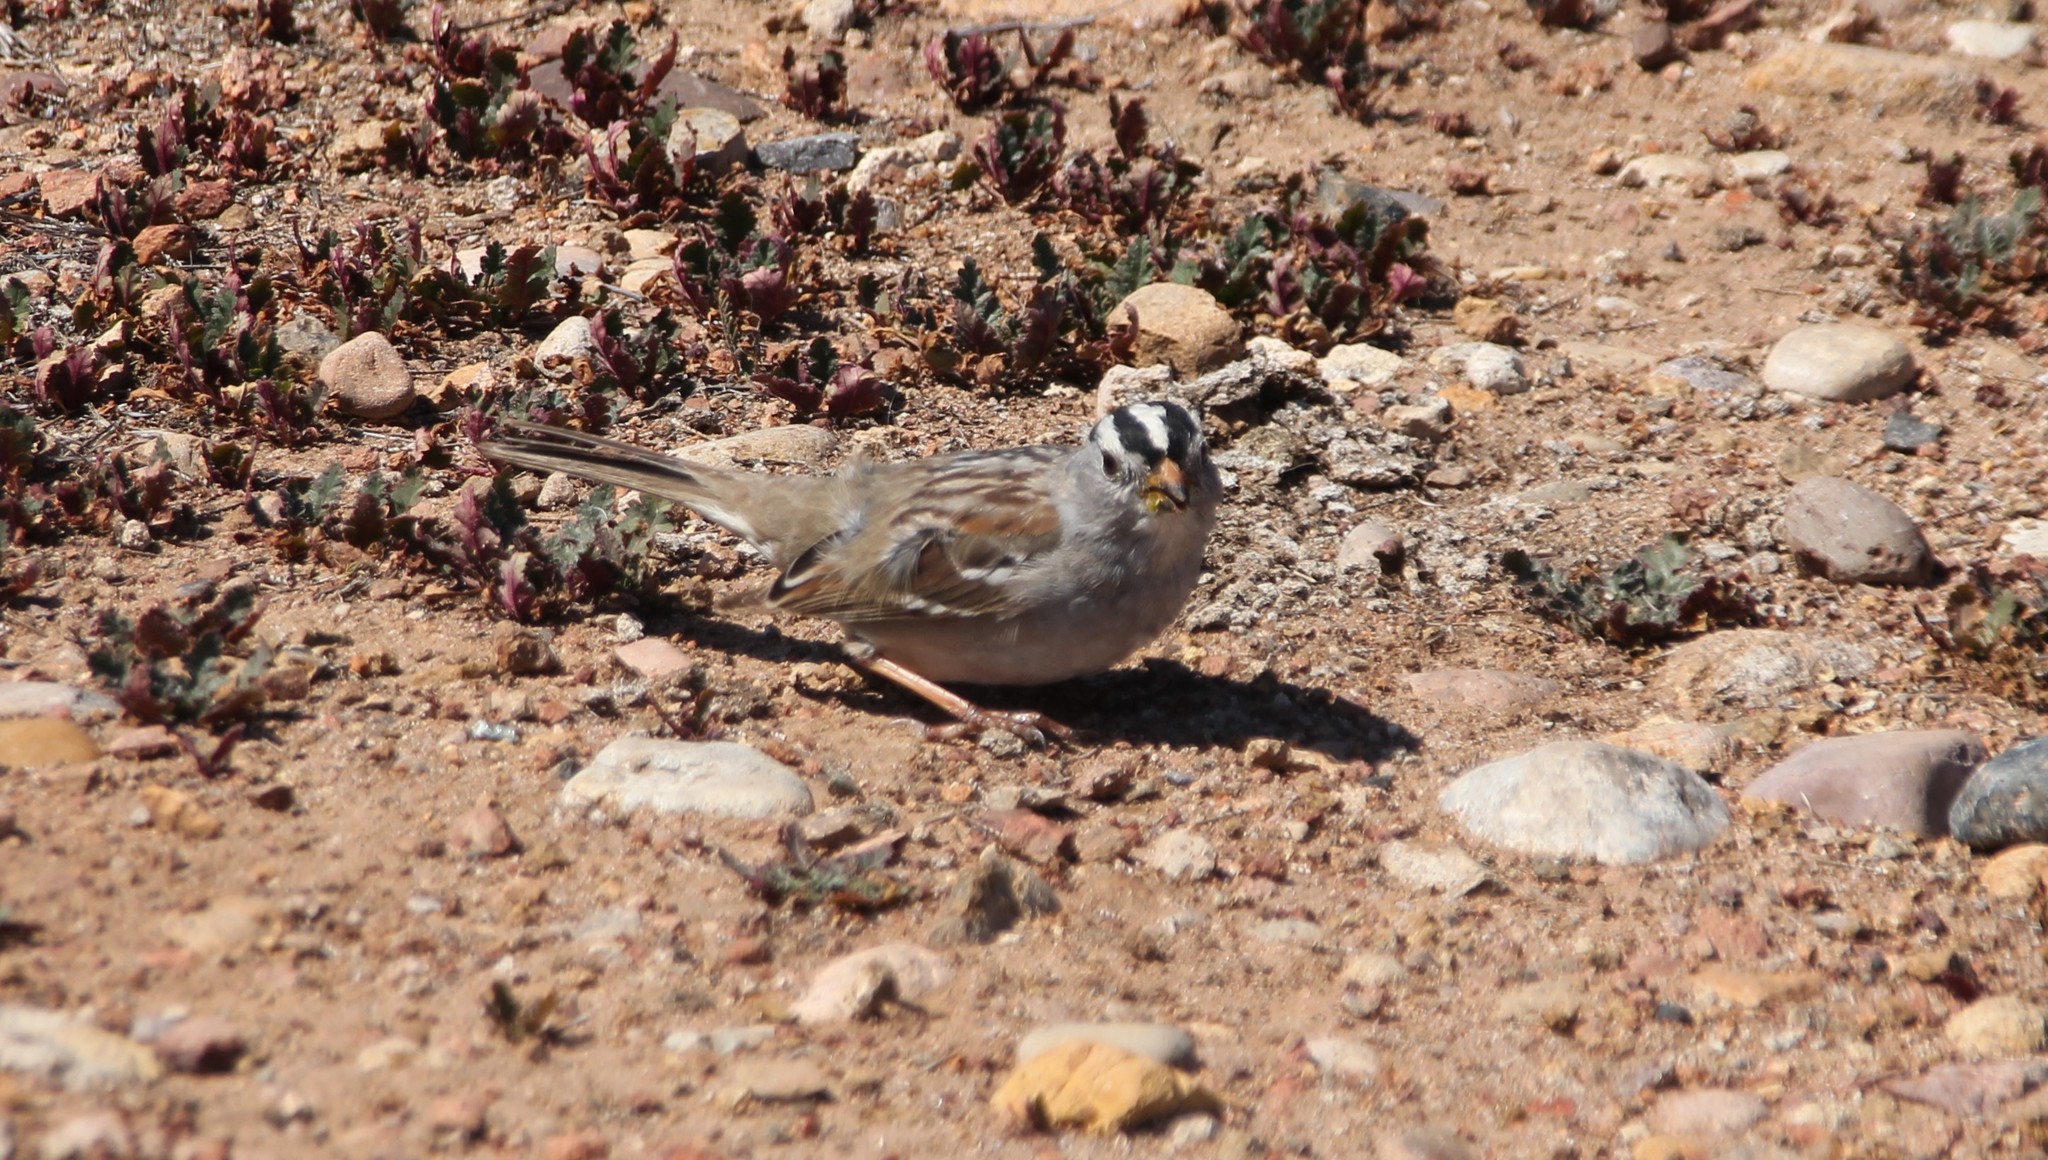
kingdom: Animalia
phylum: Chordata
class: Aves
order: Passeriformes
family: Passerellidae
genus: Zonotrichia
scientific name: Zonotrichia leucophrys
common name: White-crowned sparrow
